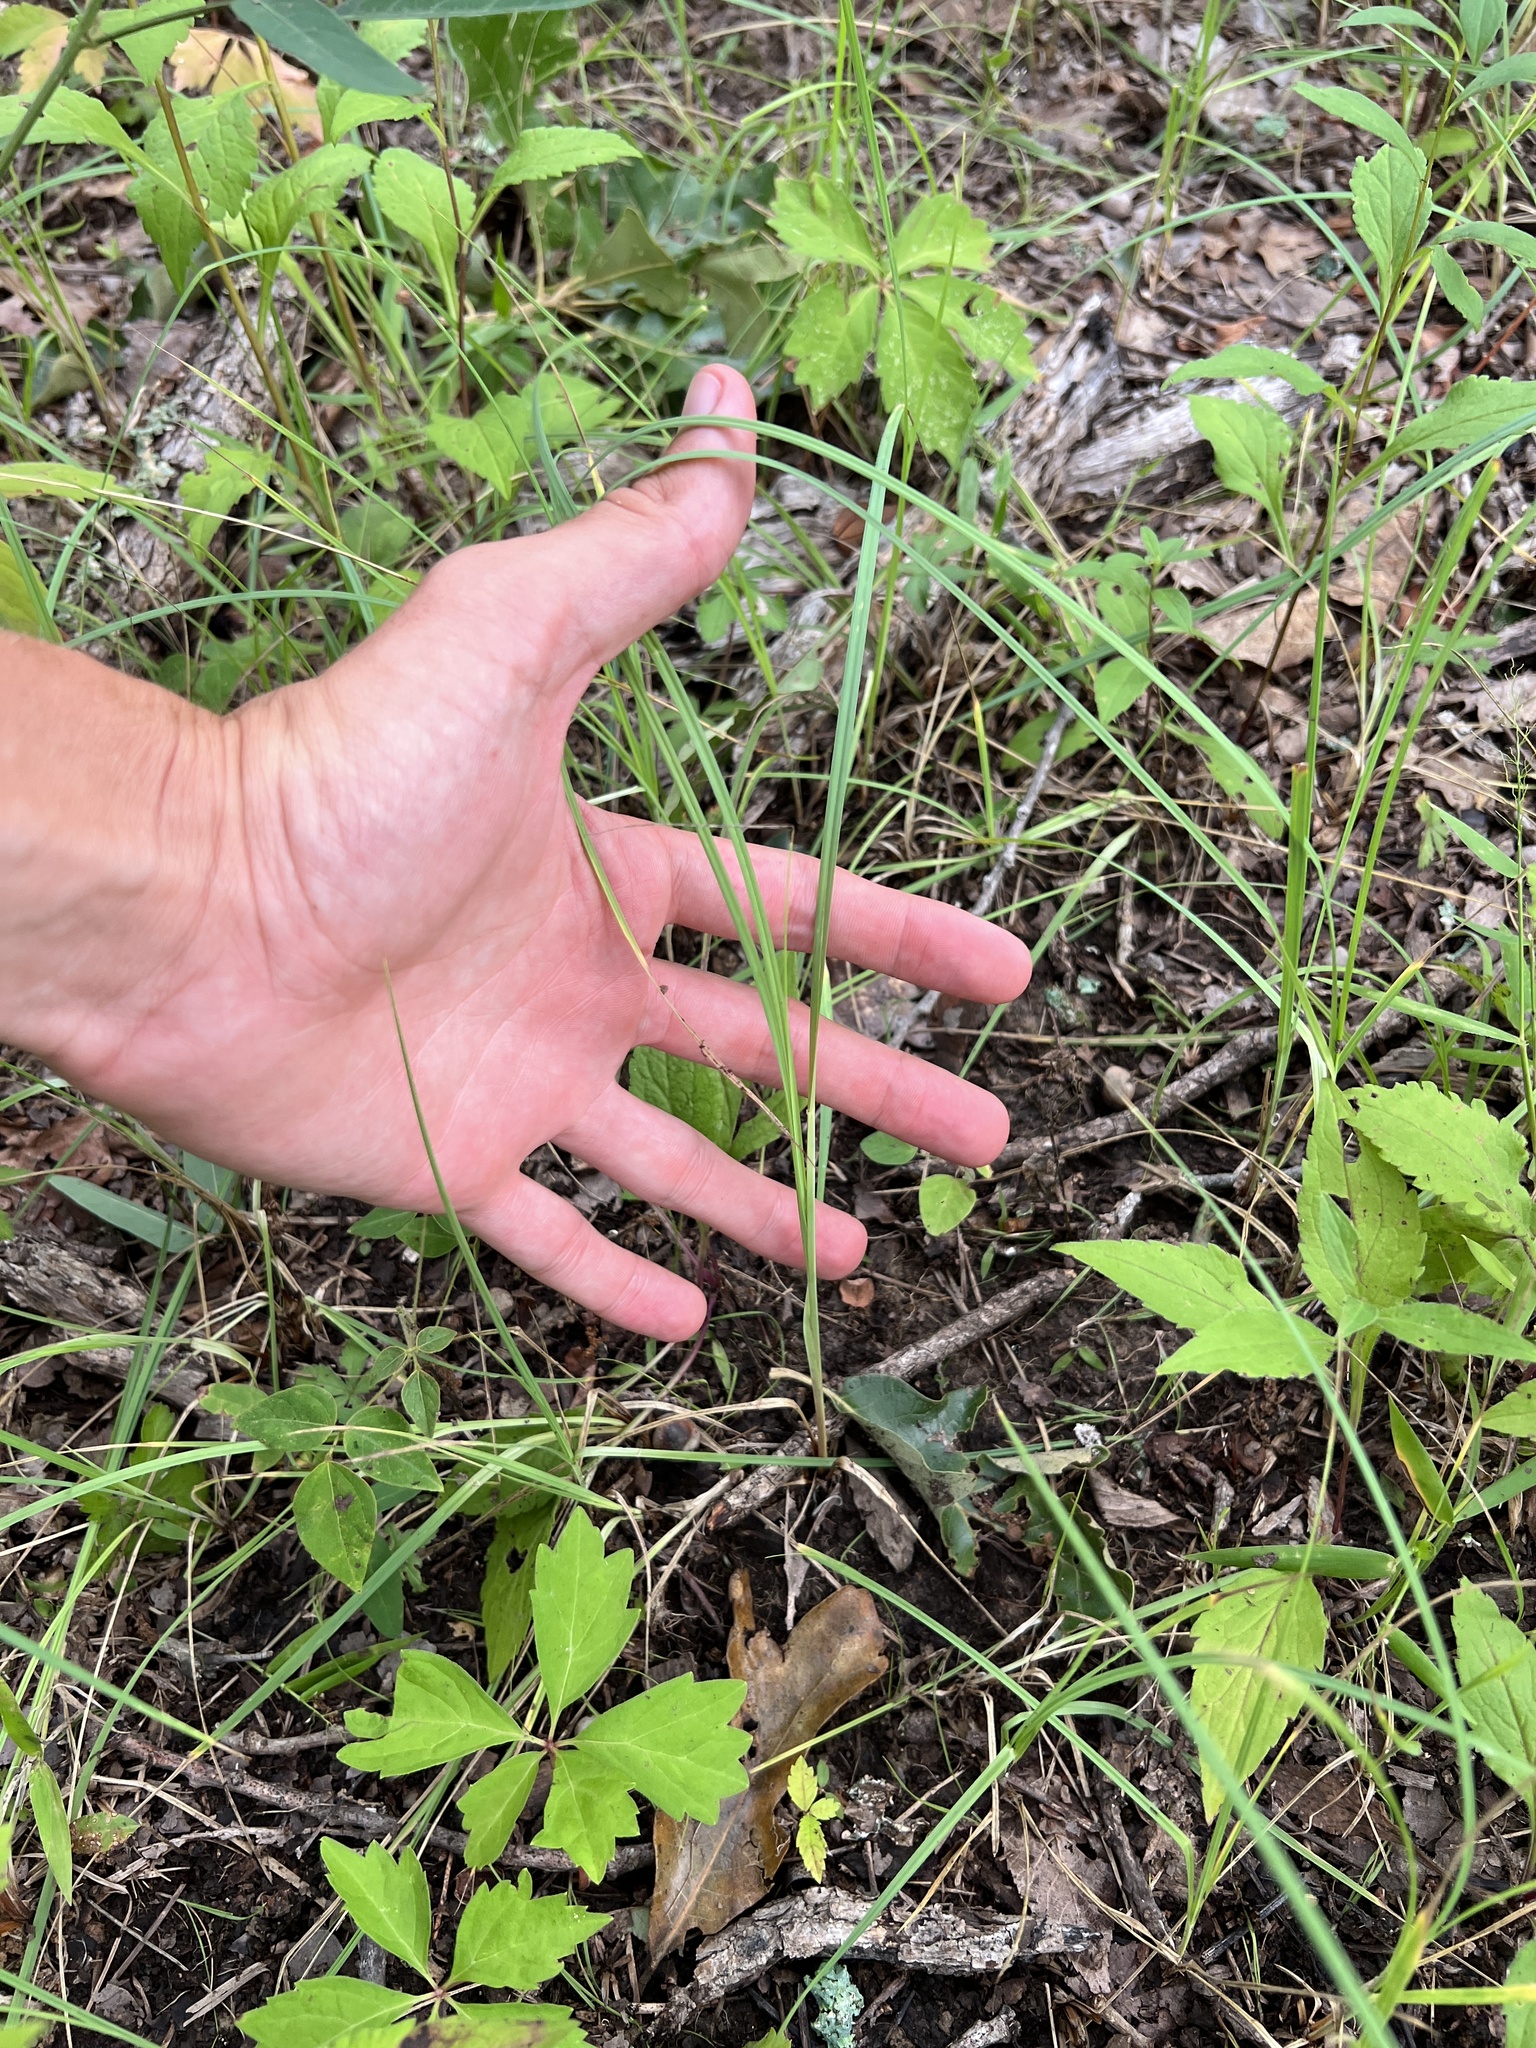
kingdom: Plantae
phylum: Tracheophyta
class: Liliopsida
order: Poales
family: Cyperaceae
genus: Carex
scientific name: Carex meadii
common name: Mead's sedge
